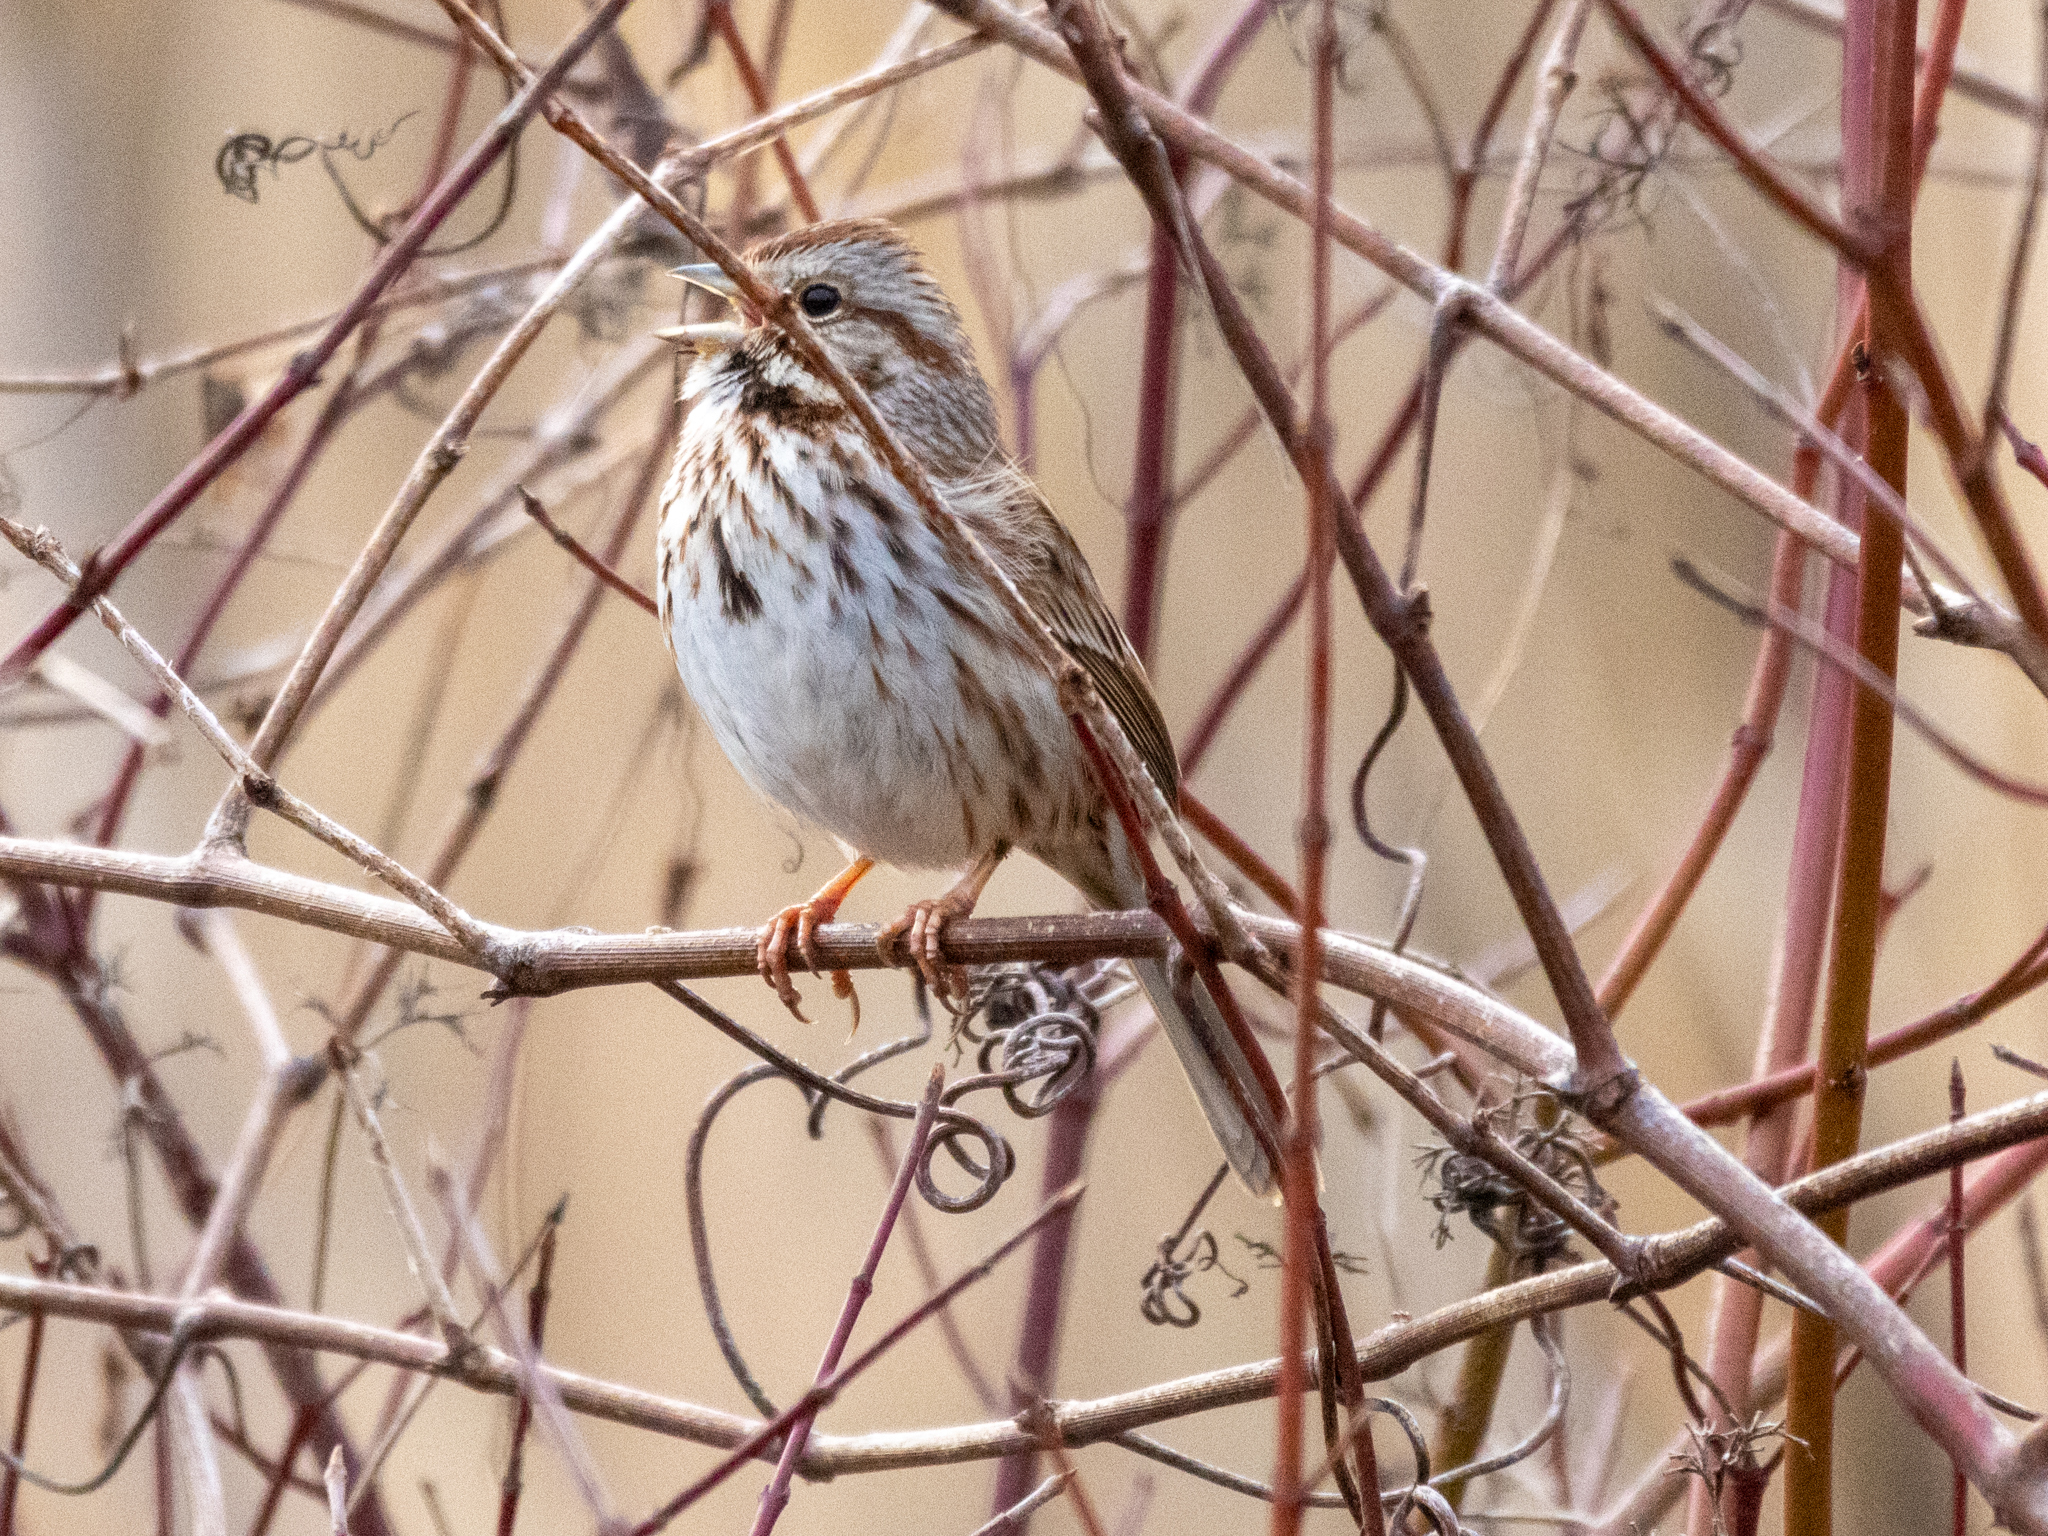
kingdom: Animalia
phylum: Chordata
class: Aves
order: Passeriformes
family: Passerellidae
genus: Melospiza
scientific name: Melospiza melodia
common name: Song sparrow
